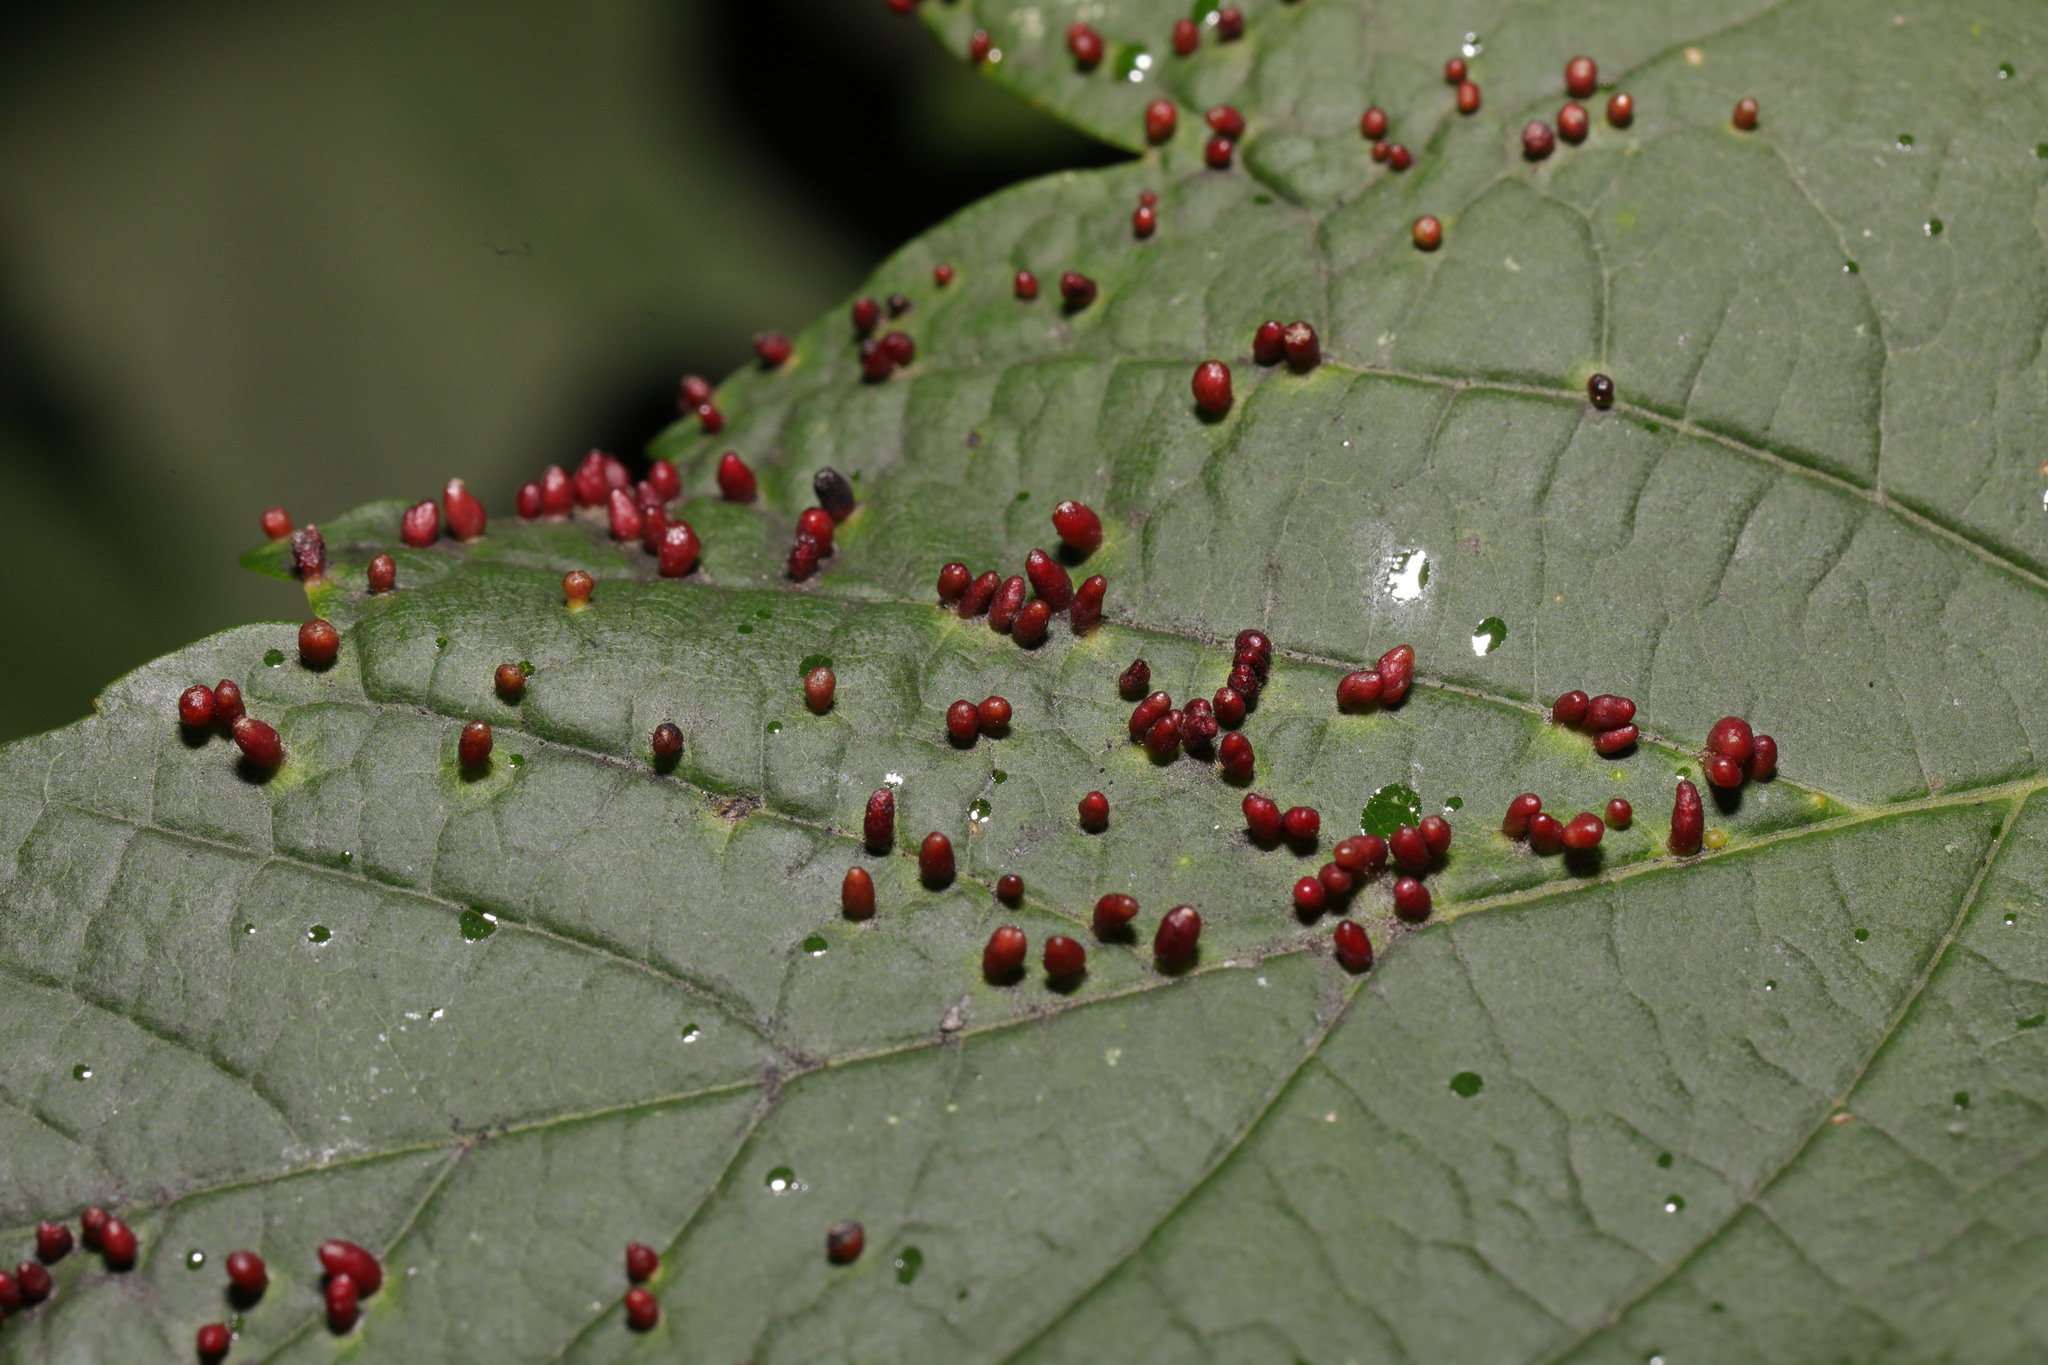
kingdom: Animalia
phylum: Arthropoda
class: Arachnida
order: Trombidiformes
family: Eriophyidae
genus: Aceria
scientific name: Aceria cephaloneus
